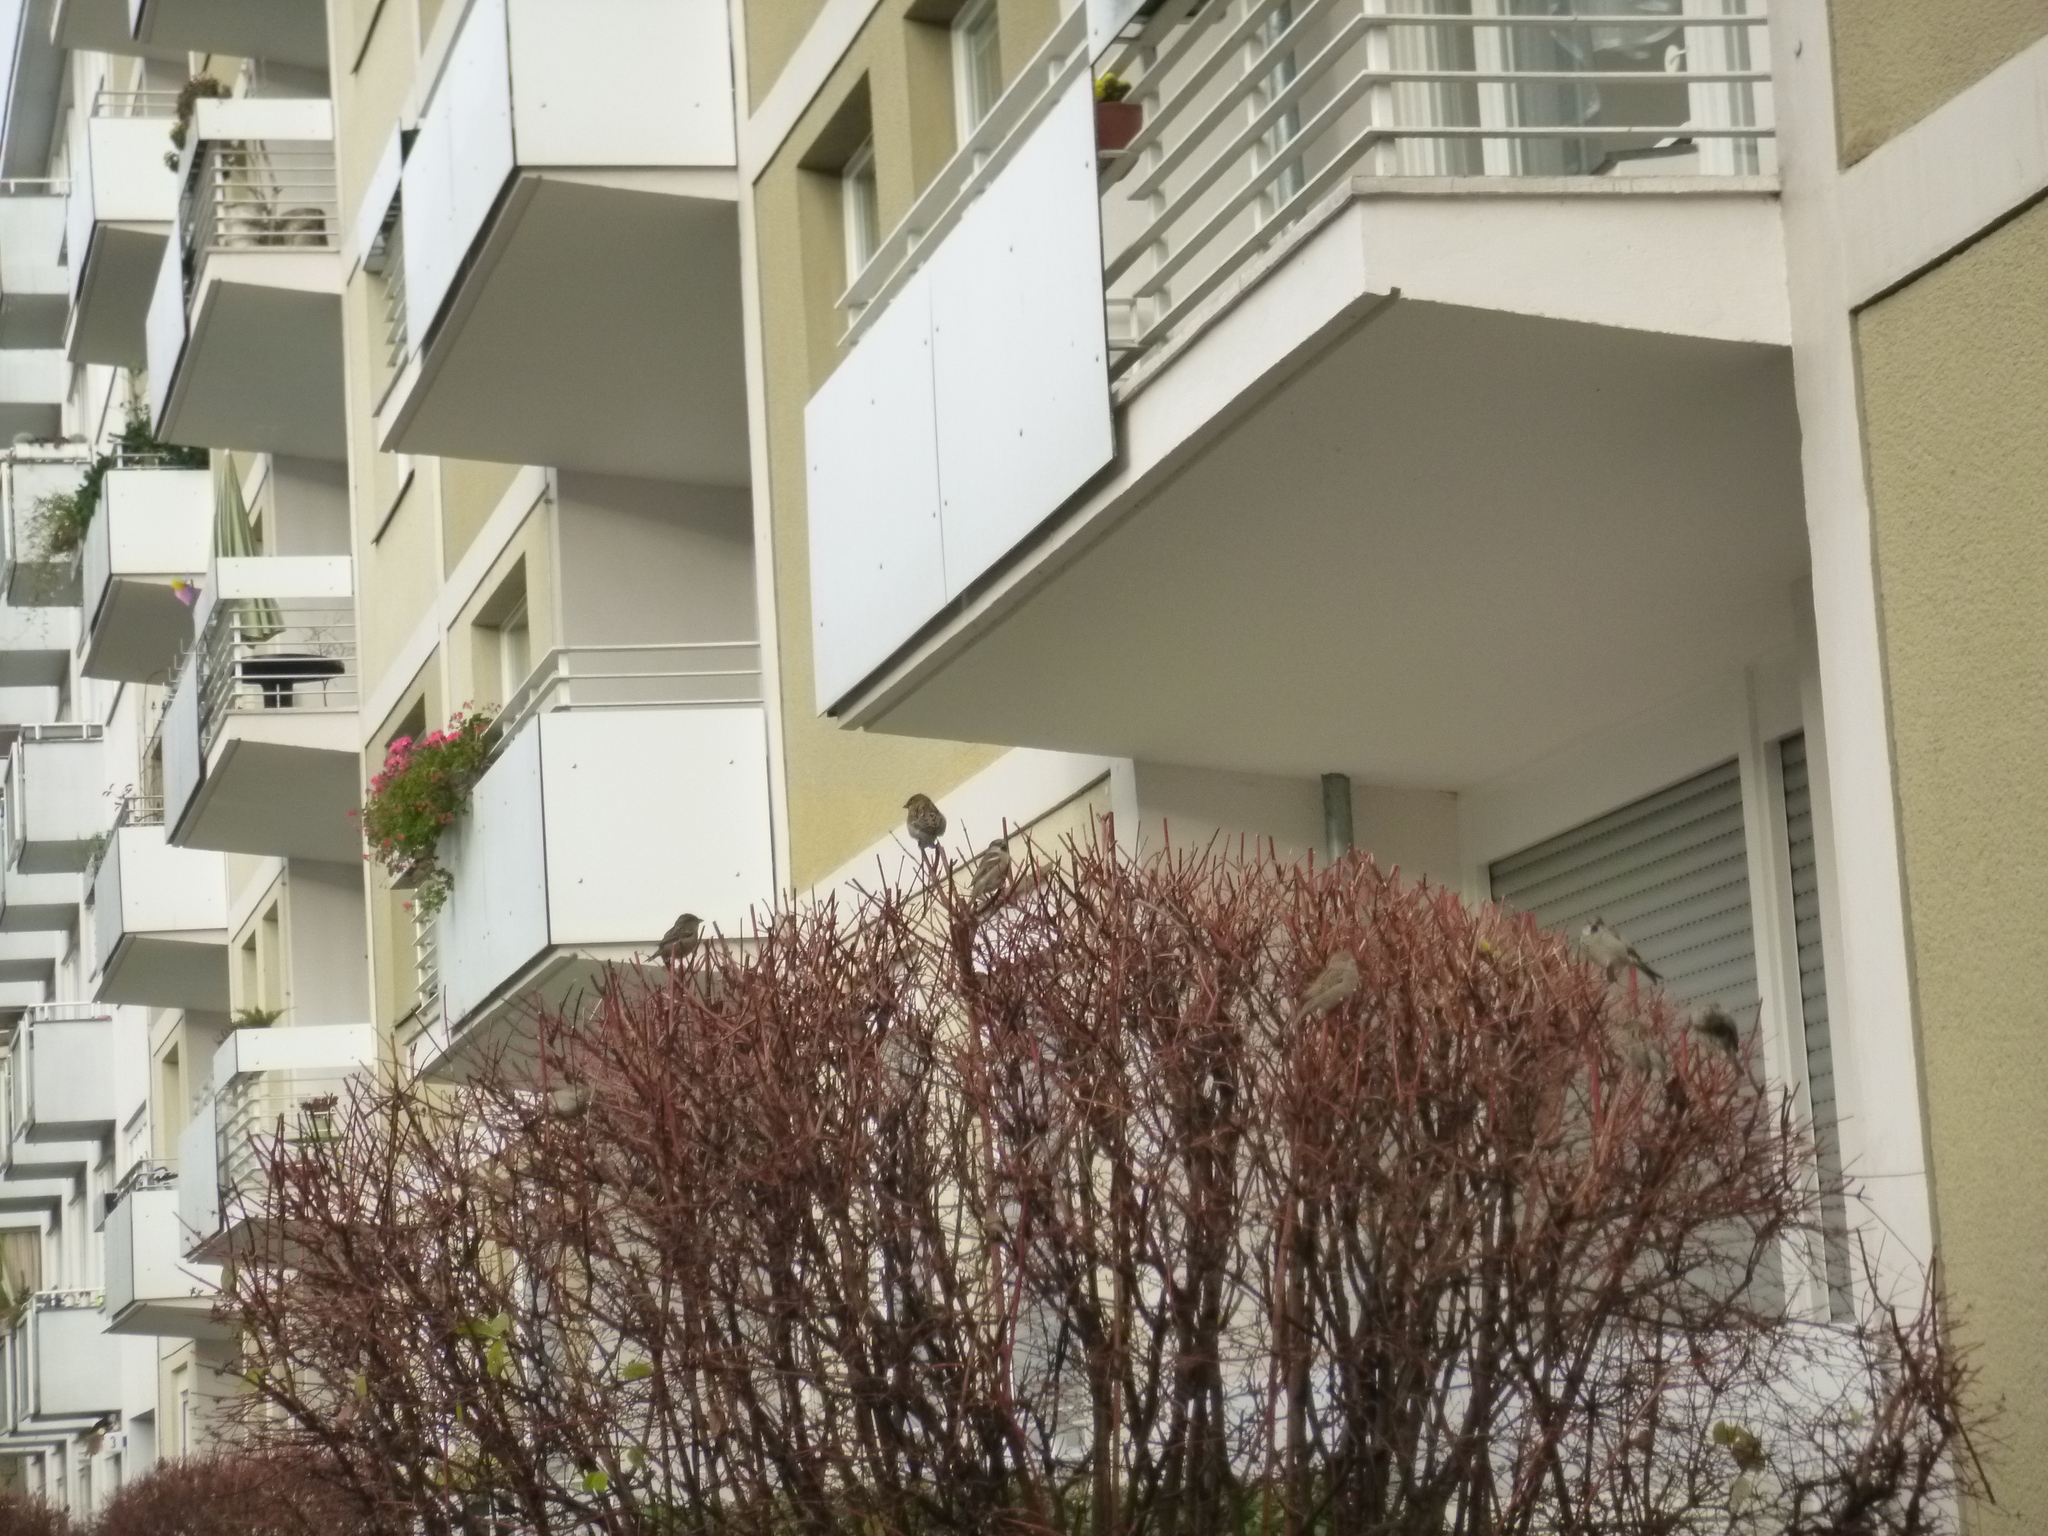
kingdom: Animalia
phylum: Chordata
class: Aves
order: Passeriformes
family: Passeridae
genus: Passer
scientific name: Passer domesticus
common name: House sparrow
